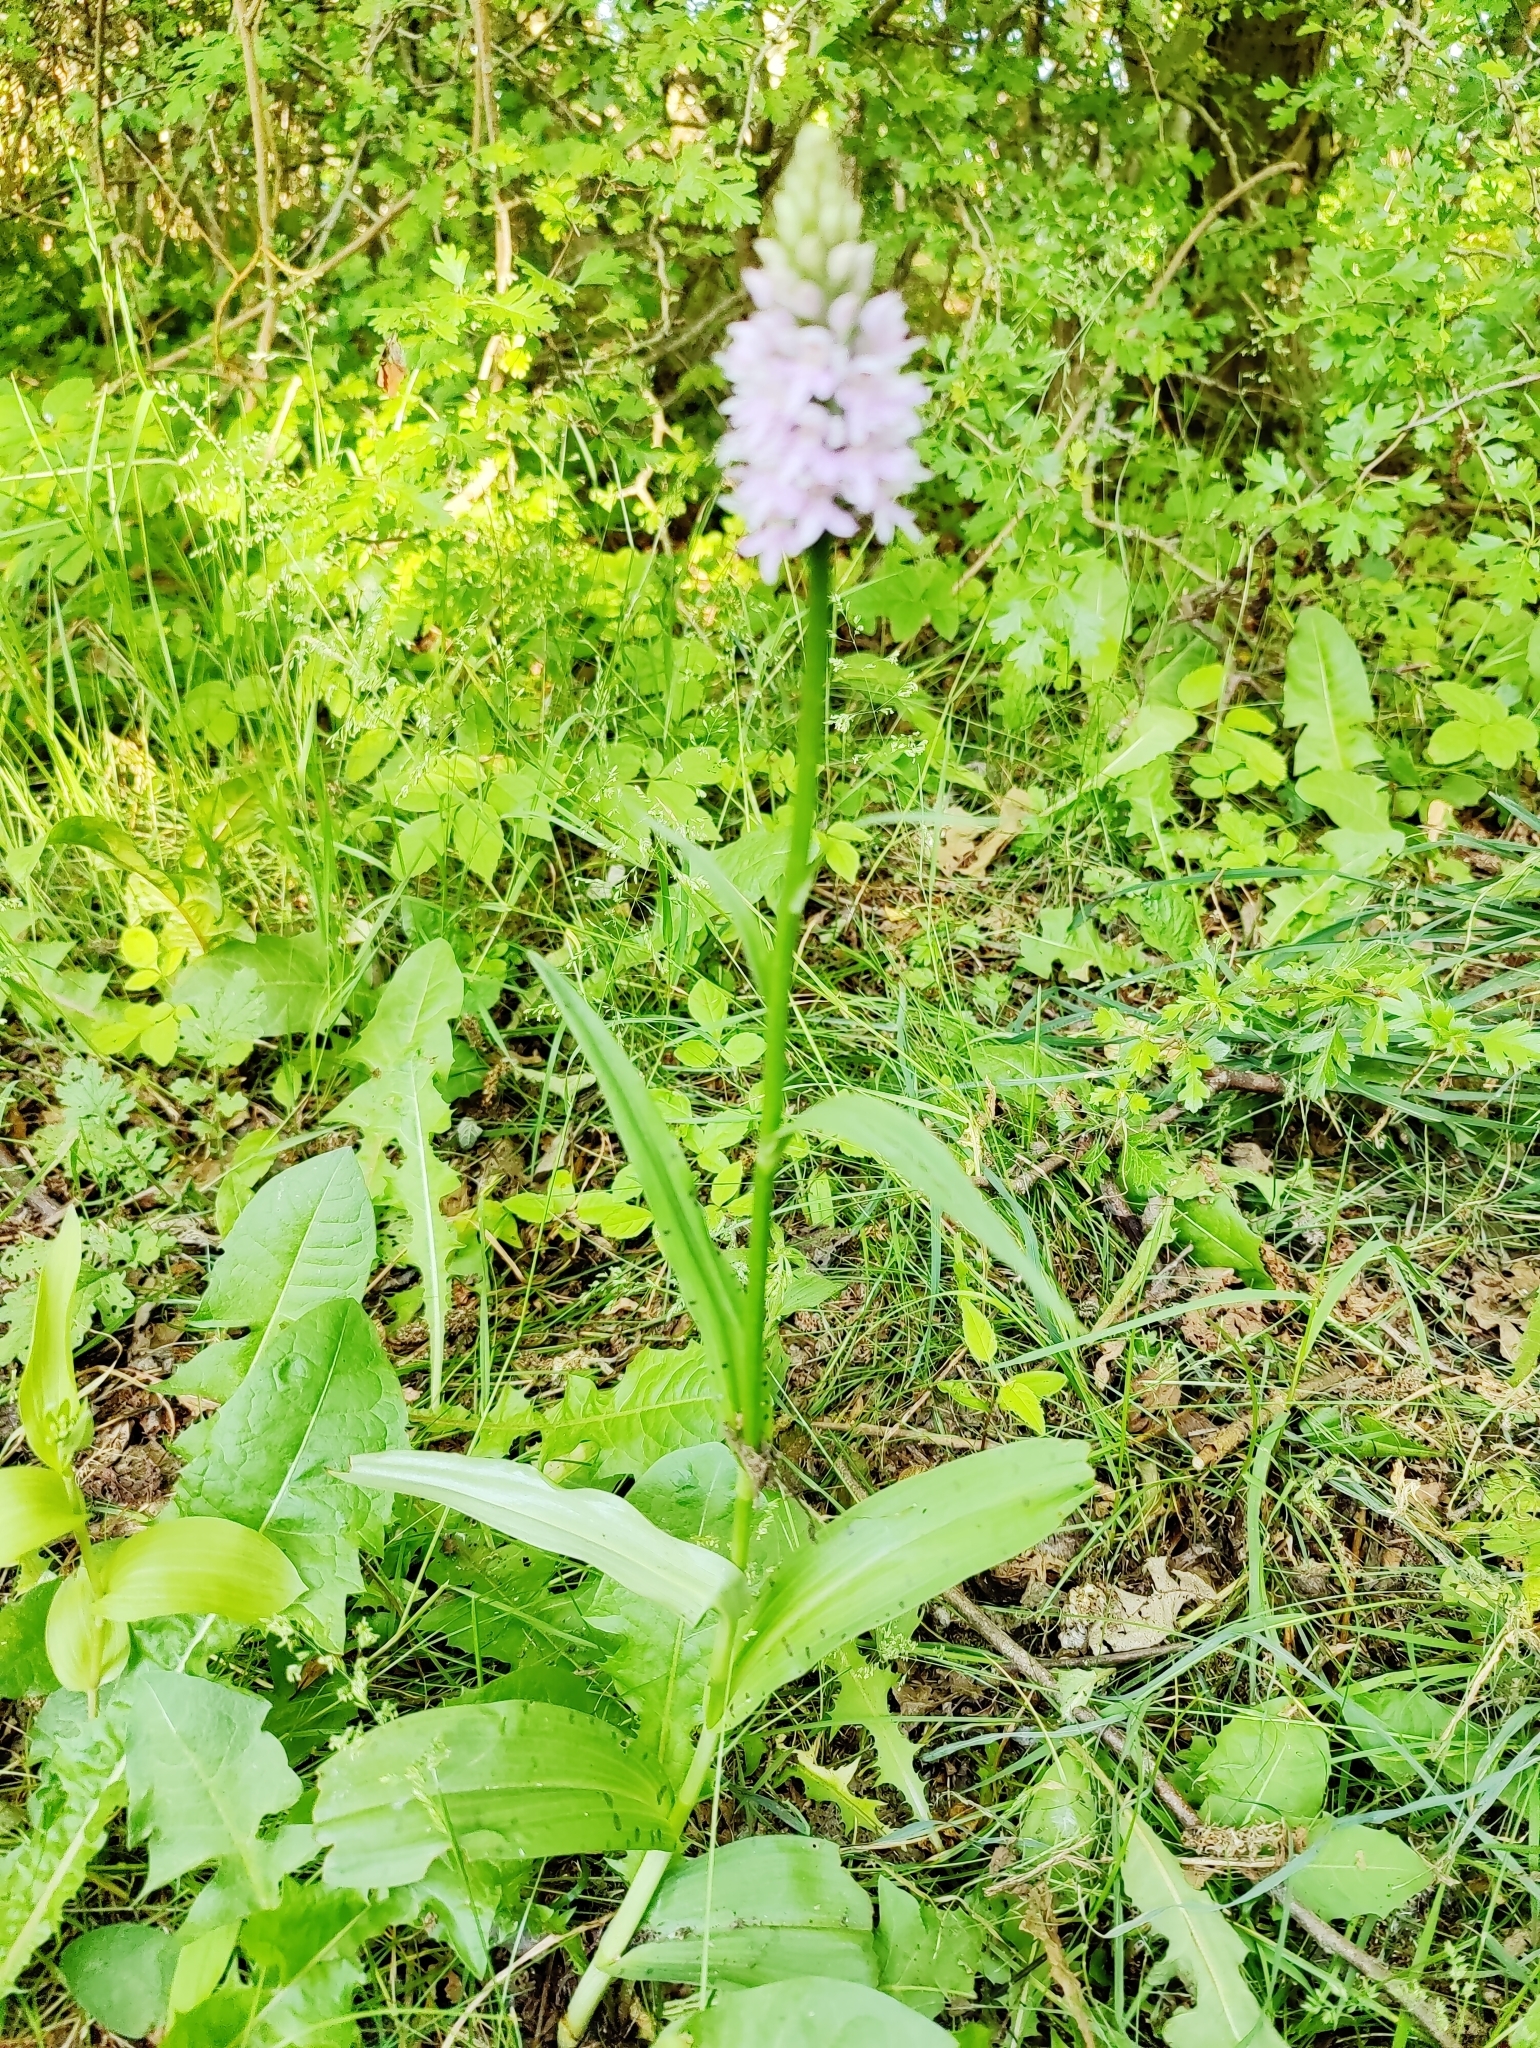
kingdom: Plantae
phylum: Tracheophyta
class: Liliopsida
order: Asparagales
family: Orchidaceae
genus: Dactylorhiza
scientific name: Dactylorhiza maculata
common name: Heath spotted-orchid
